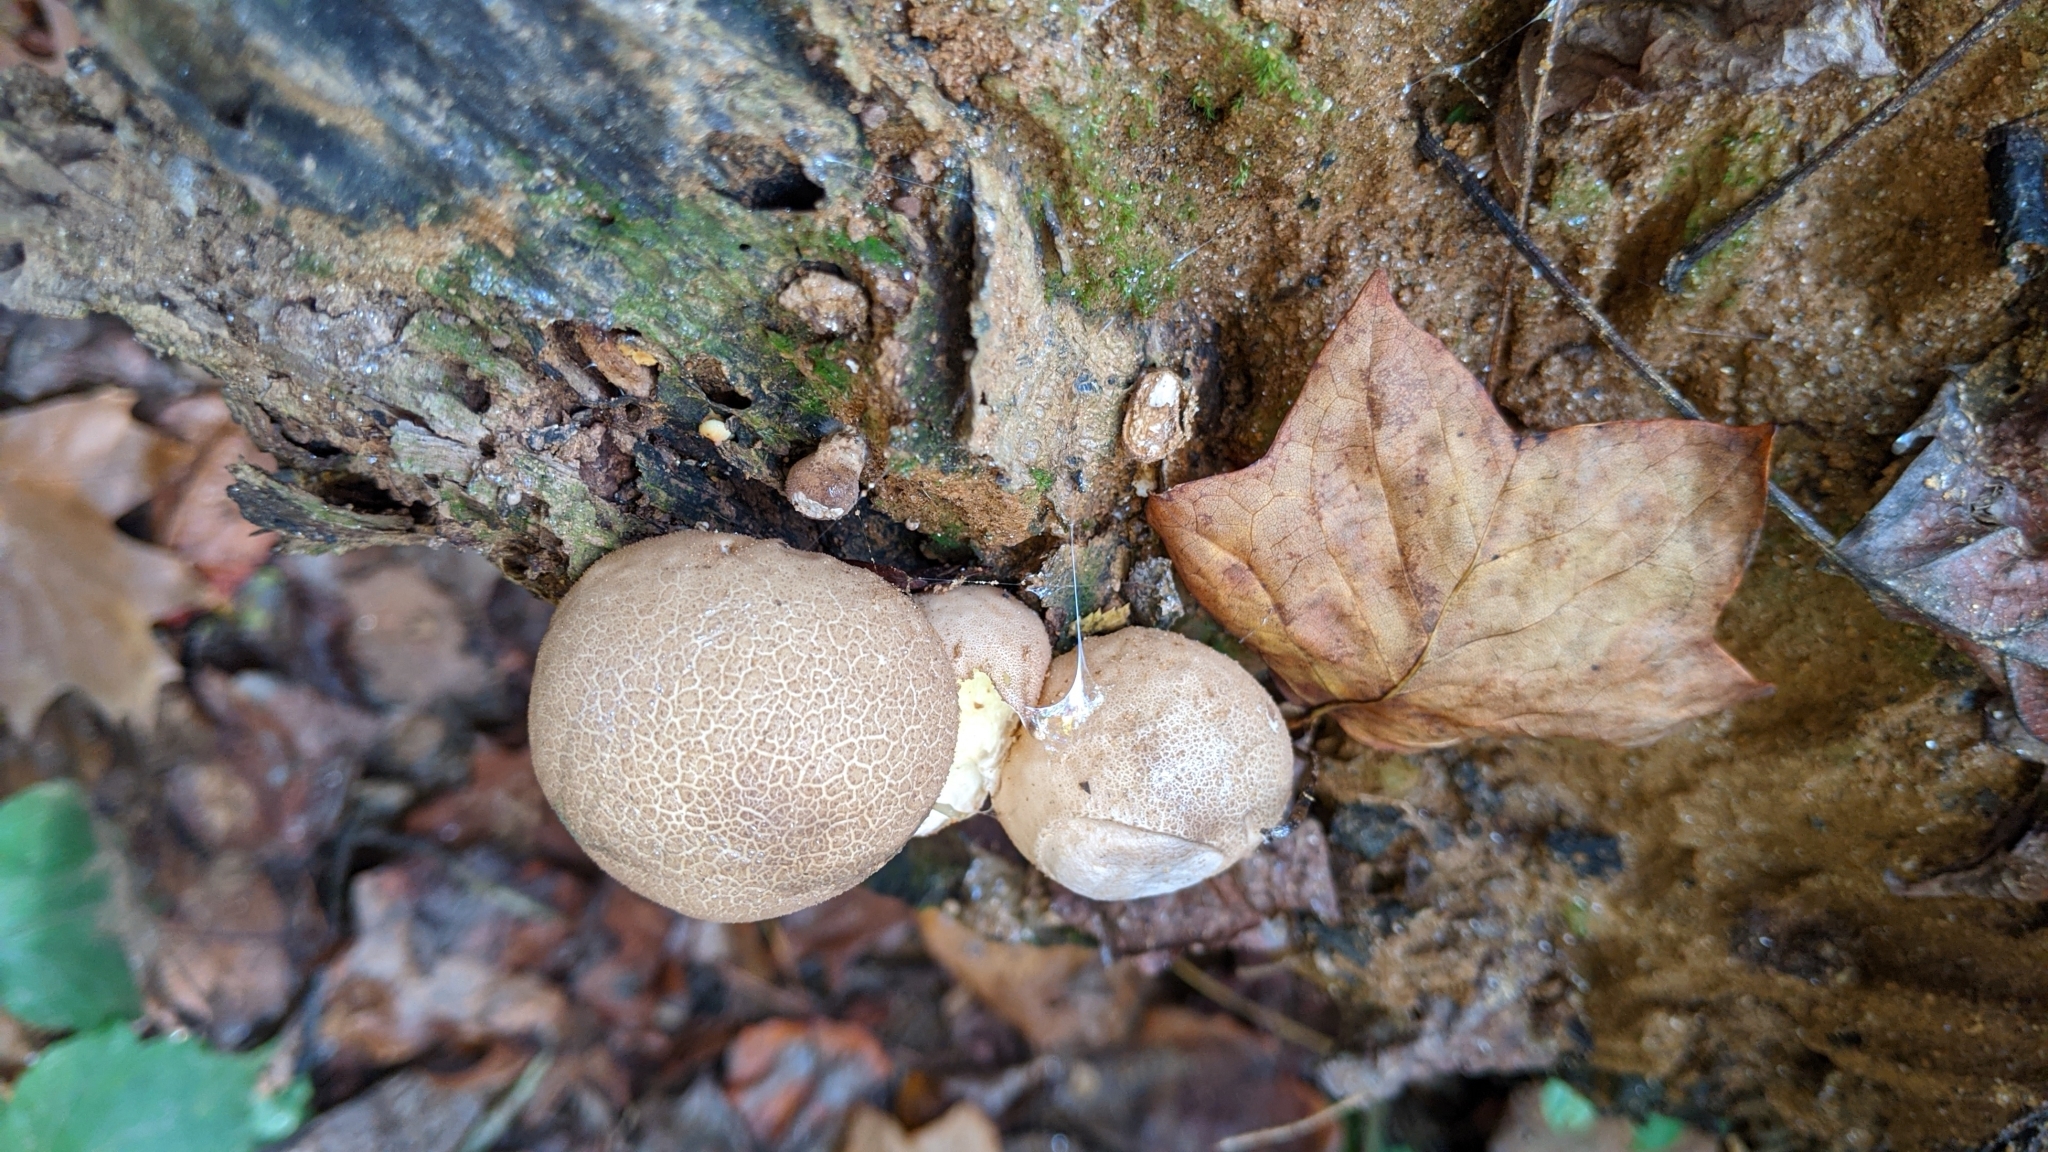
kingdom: Fungi
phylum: Basidiomycota
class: Agaricomycetes
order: Agaricales
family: Lycoperdaceae
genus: Apioperdon
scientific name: Apioperdon pyriforme
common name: Pear-shaped puffball
